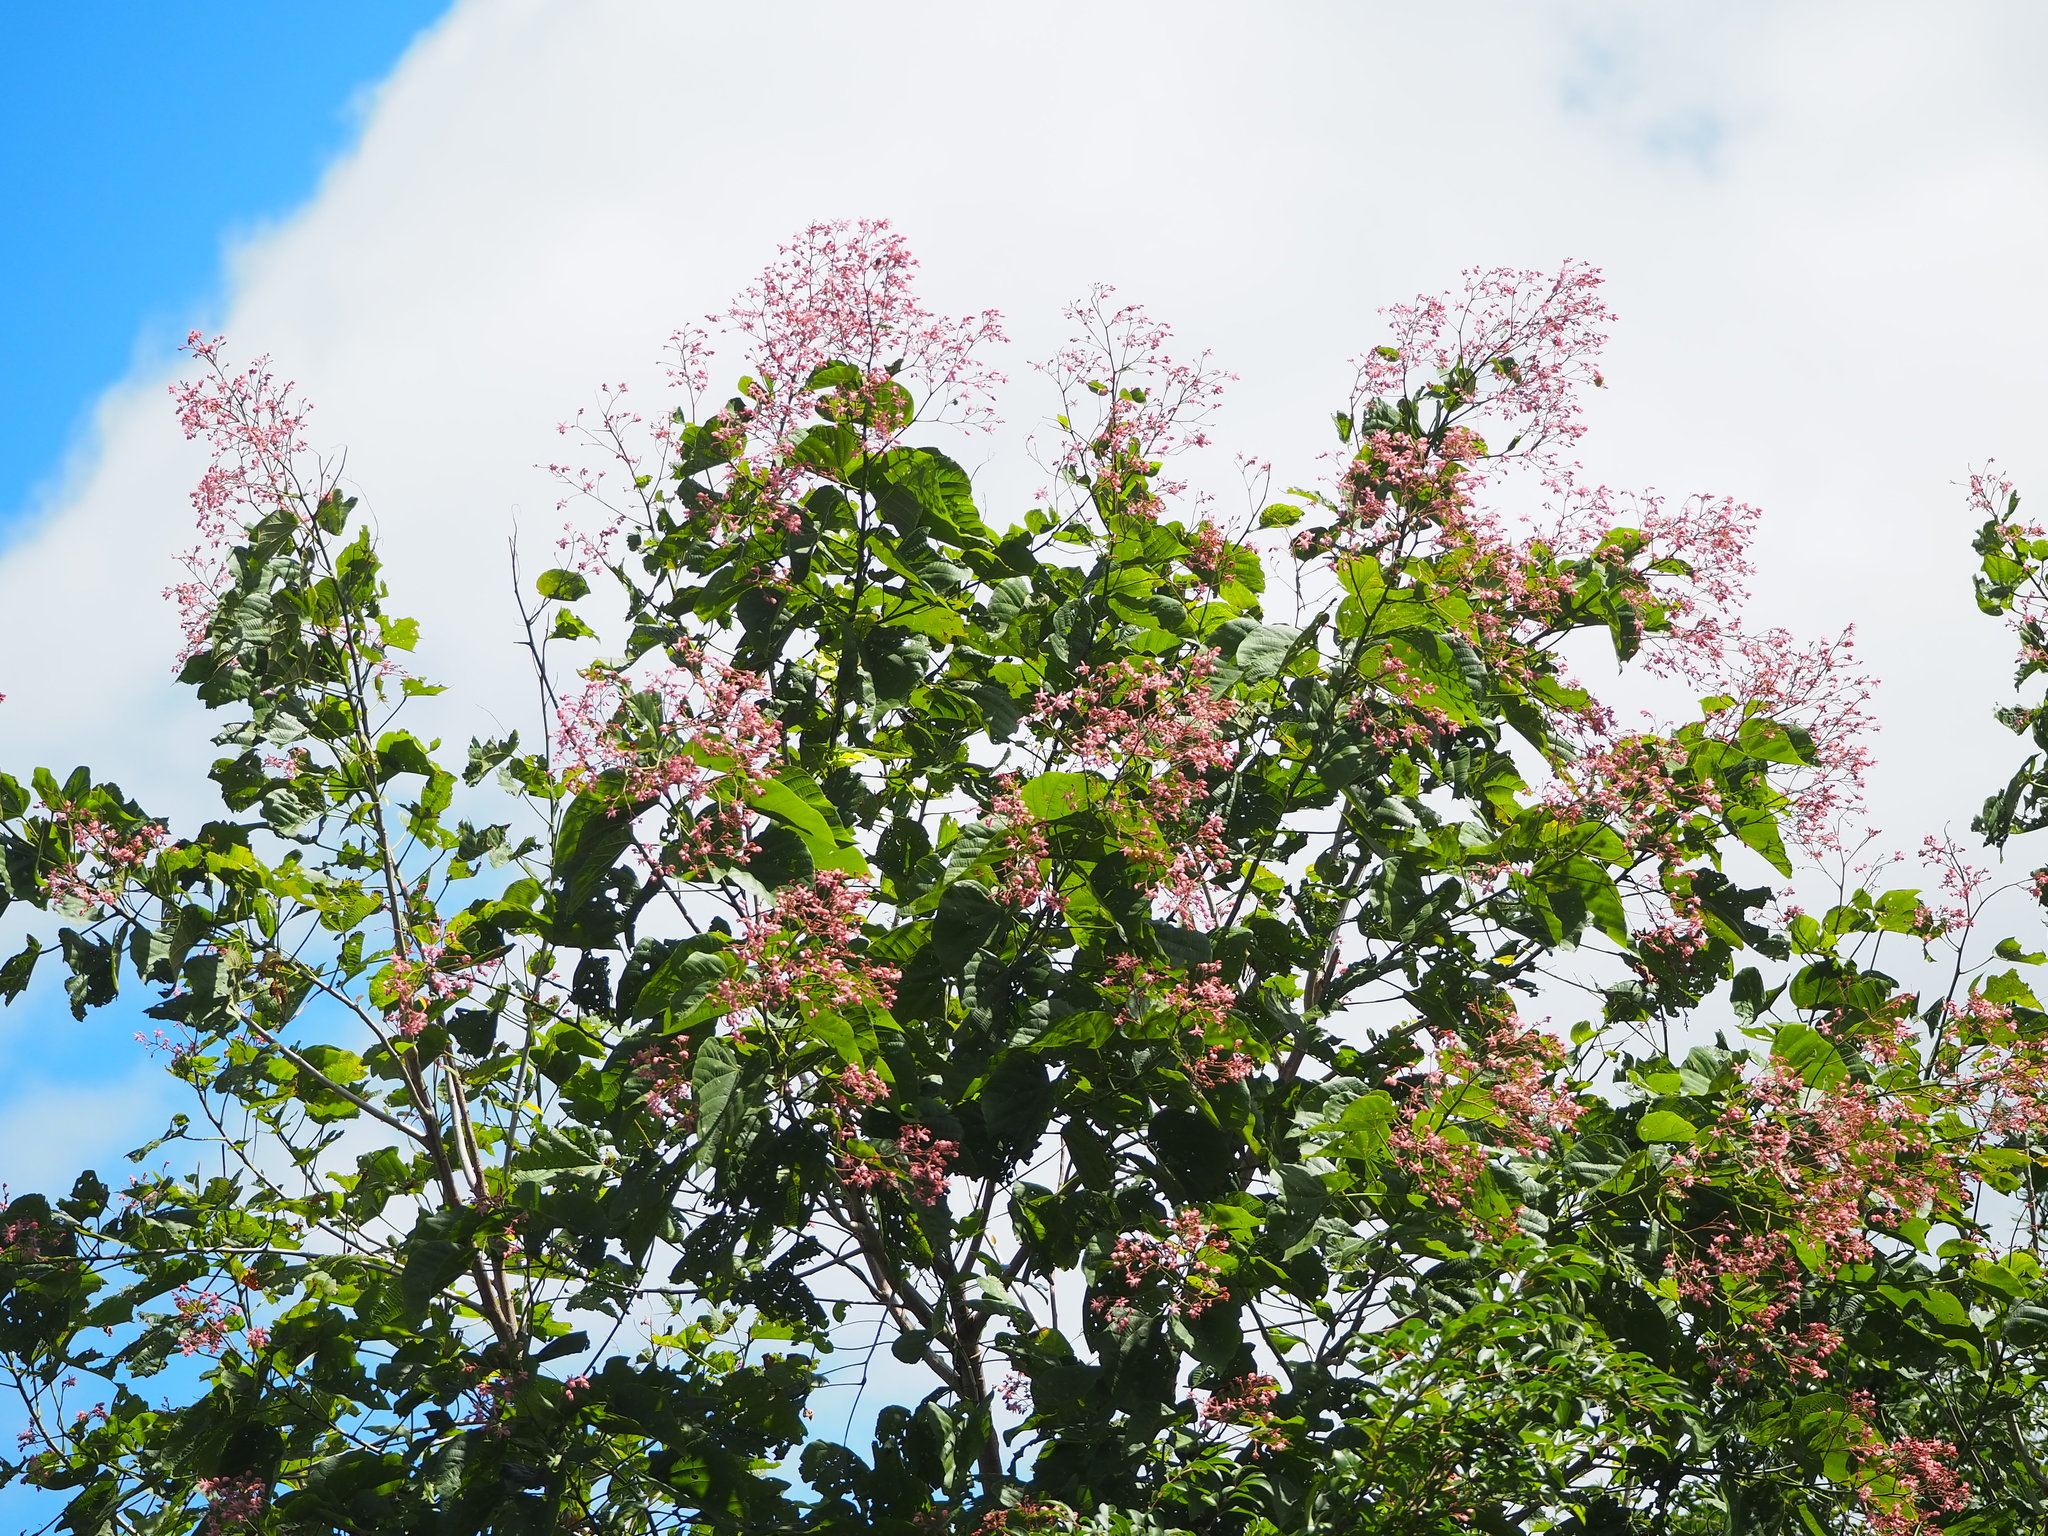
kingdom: Plantae
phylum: Tracheophyta
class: Magnoliopsida
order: Malvales
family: Malvaceae
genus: Kleinhovia
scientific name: Kleinhovia hospita
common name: Guest-tree
